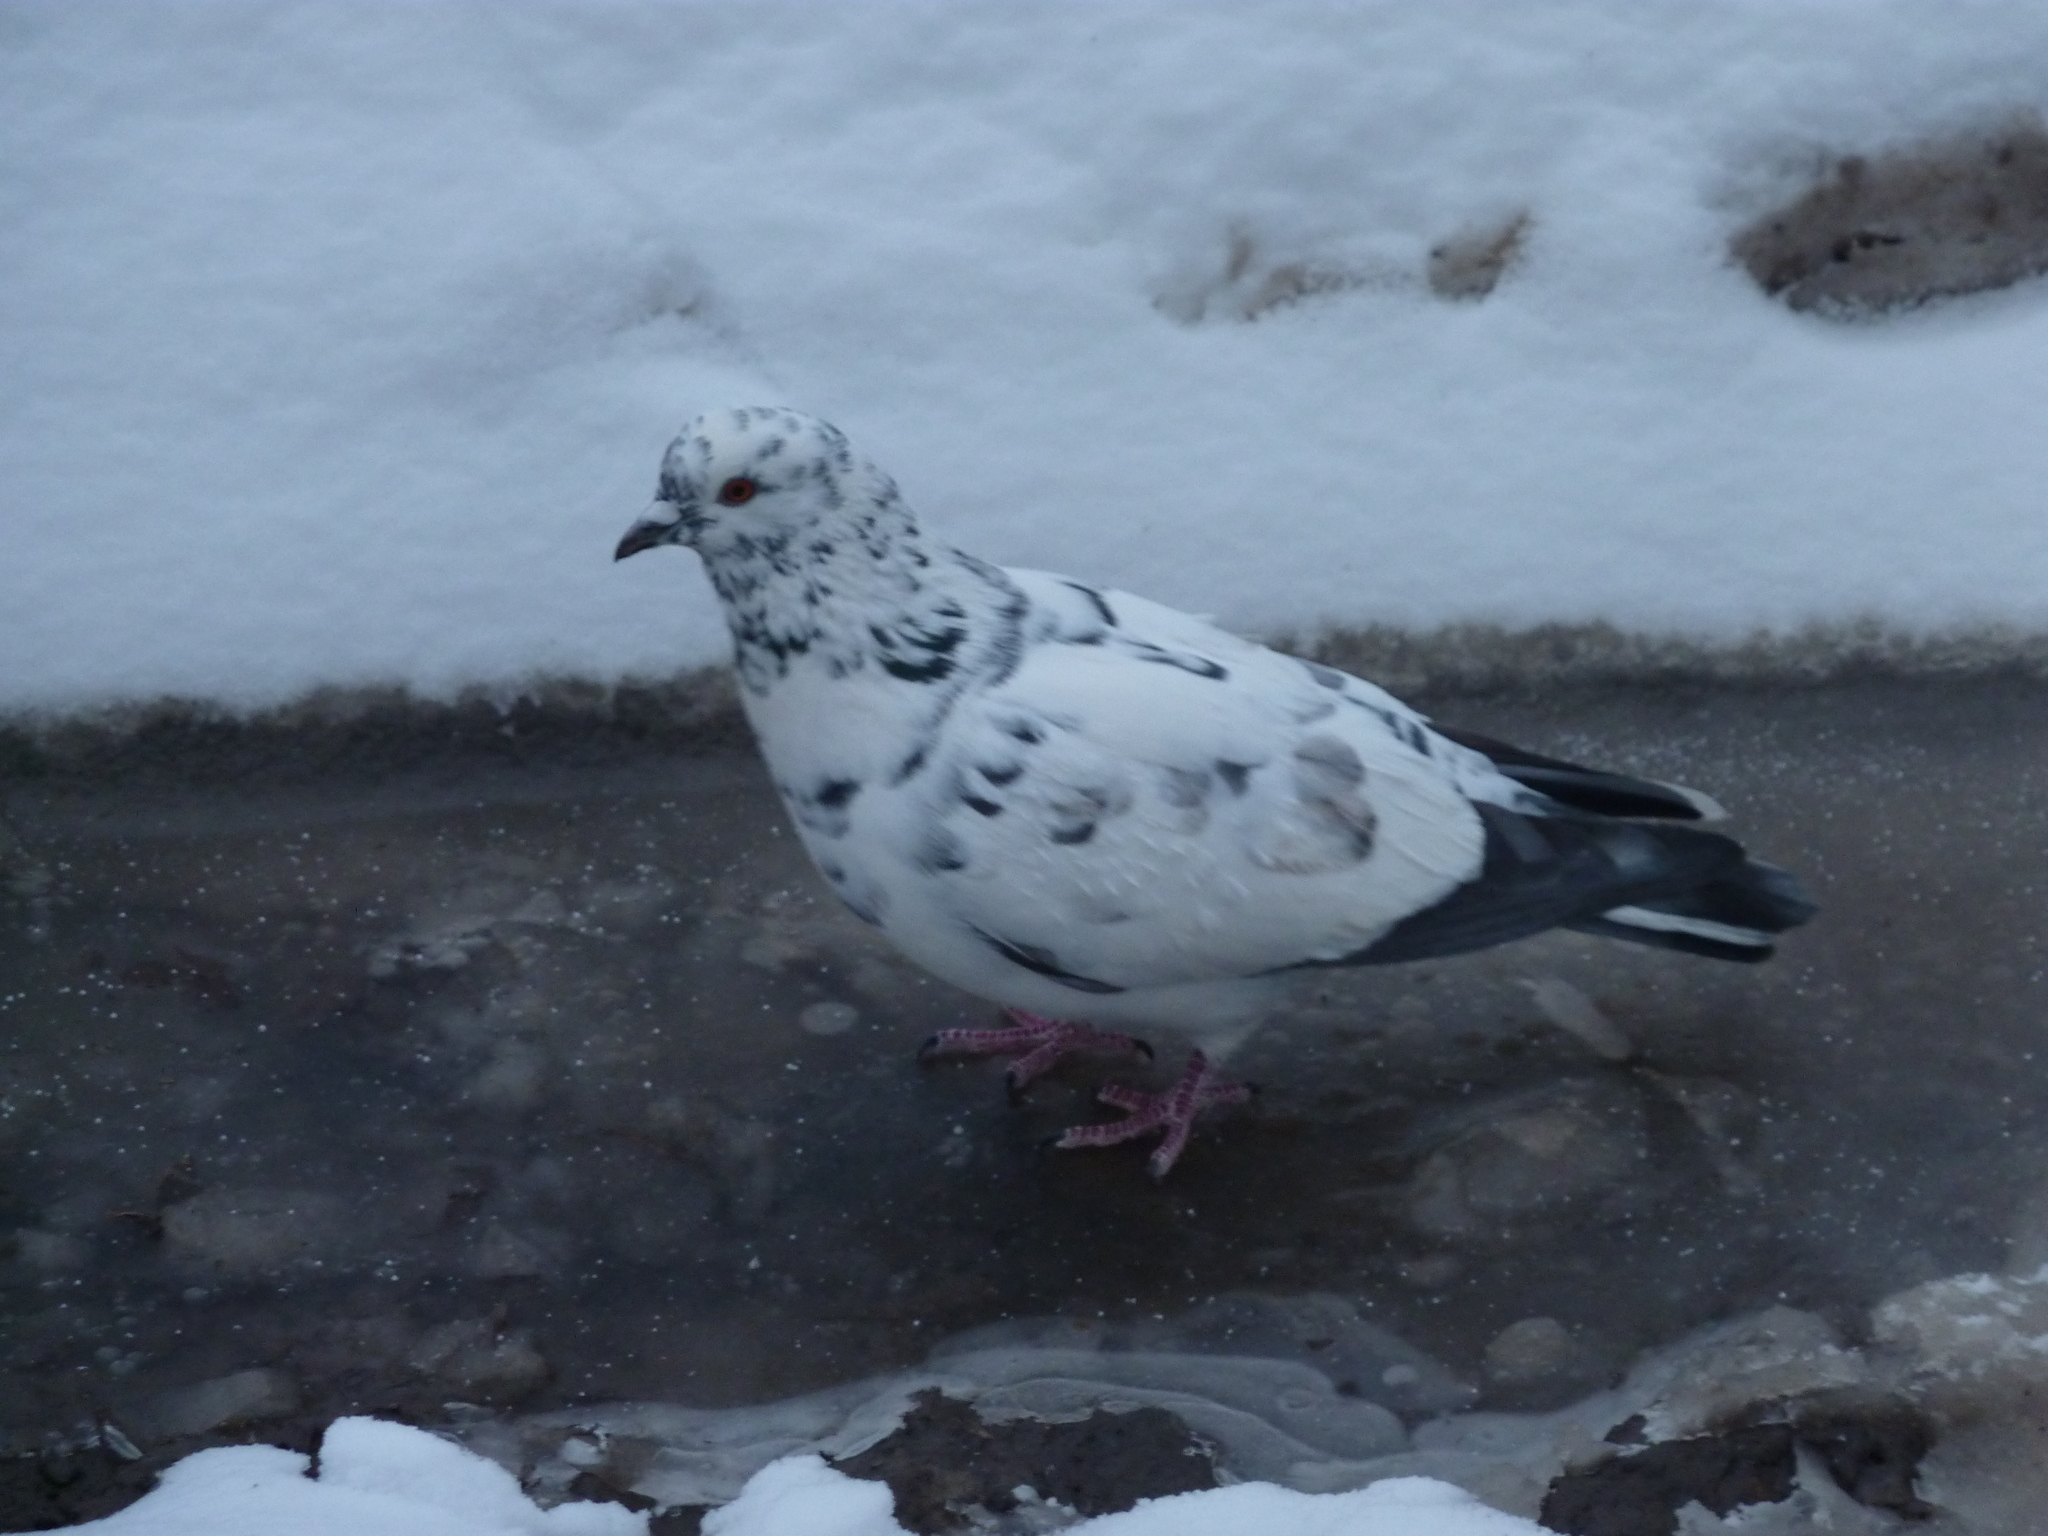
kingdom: Animalia
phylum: Chordata
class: Aves
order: Columbiformes
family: Columbidae
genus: Columba
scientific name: Columba livia
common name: Rock pigeon
